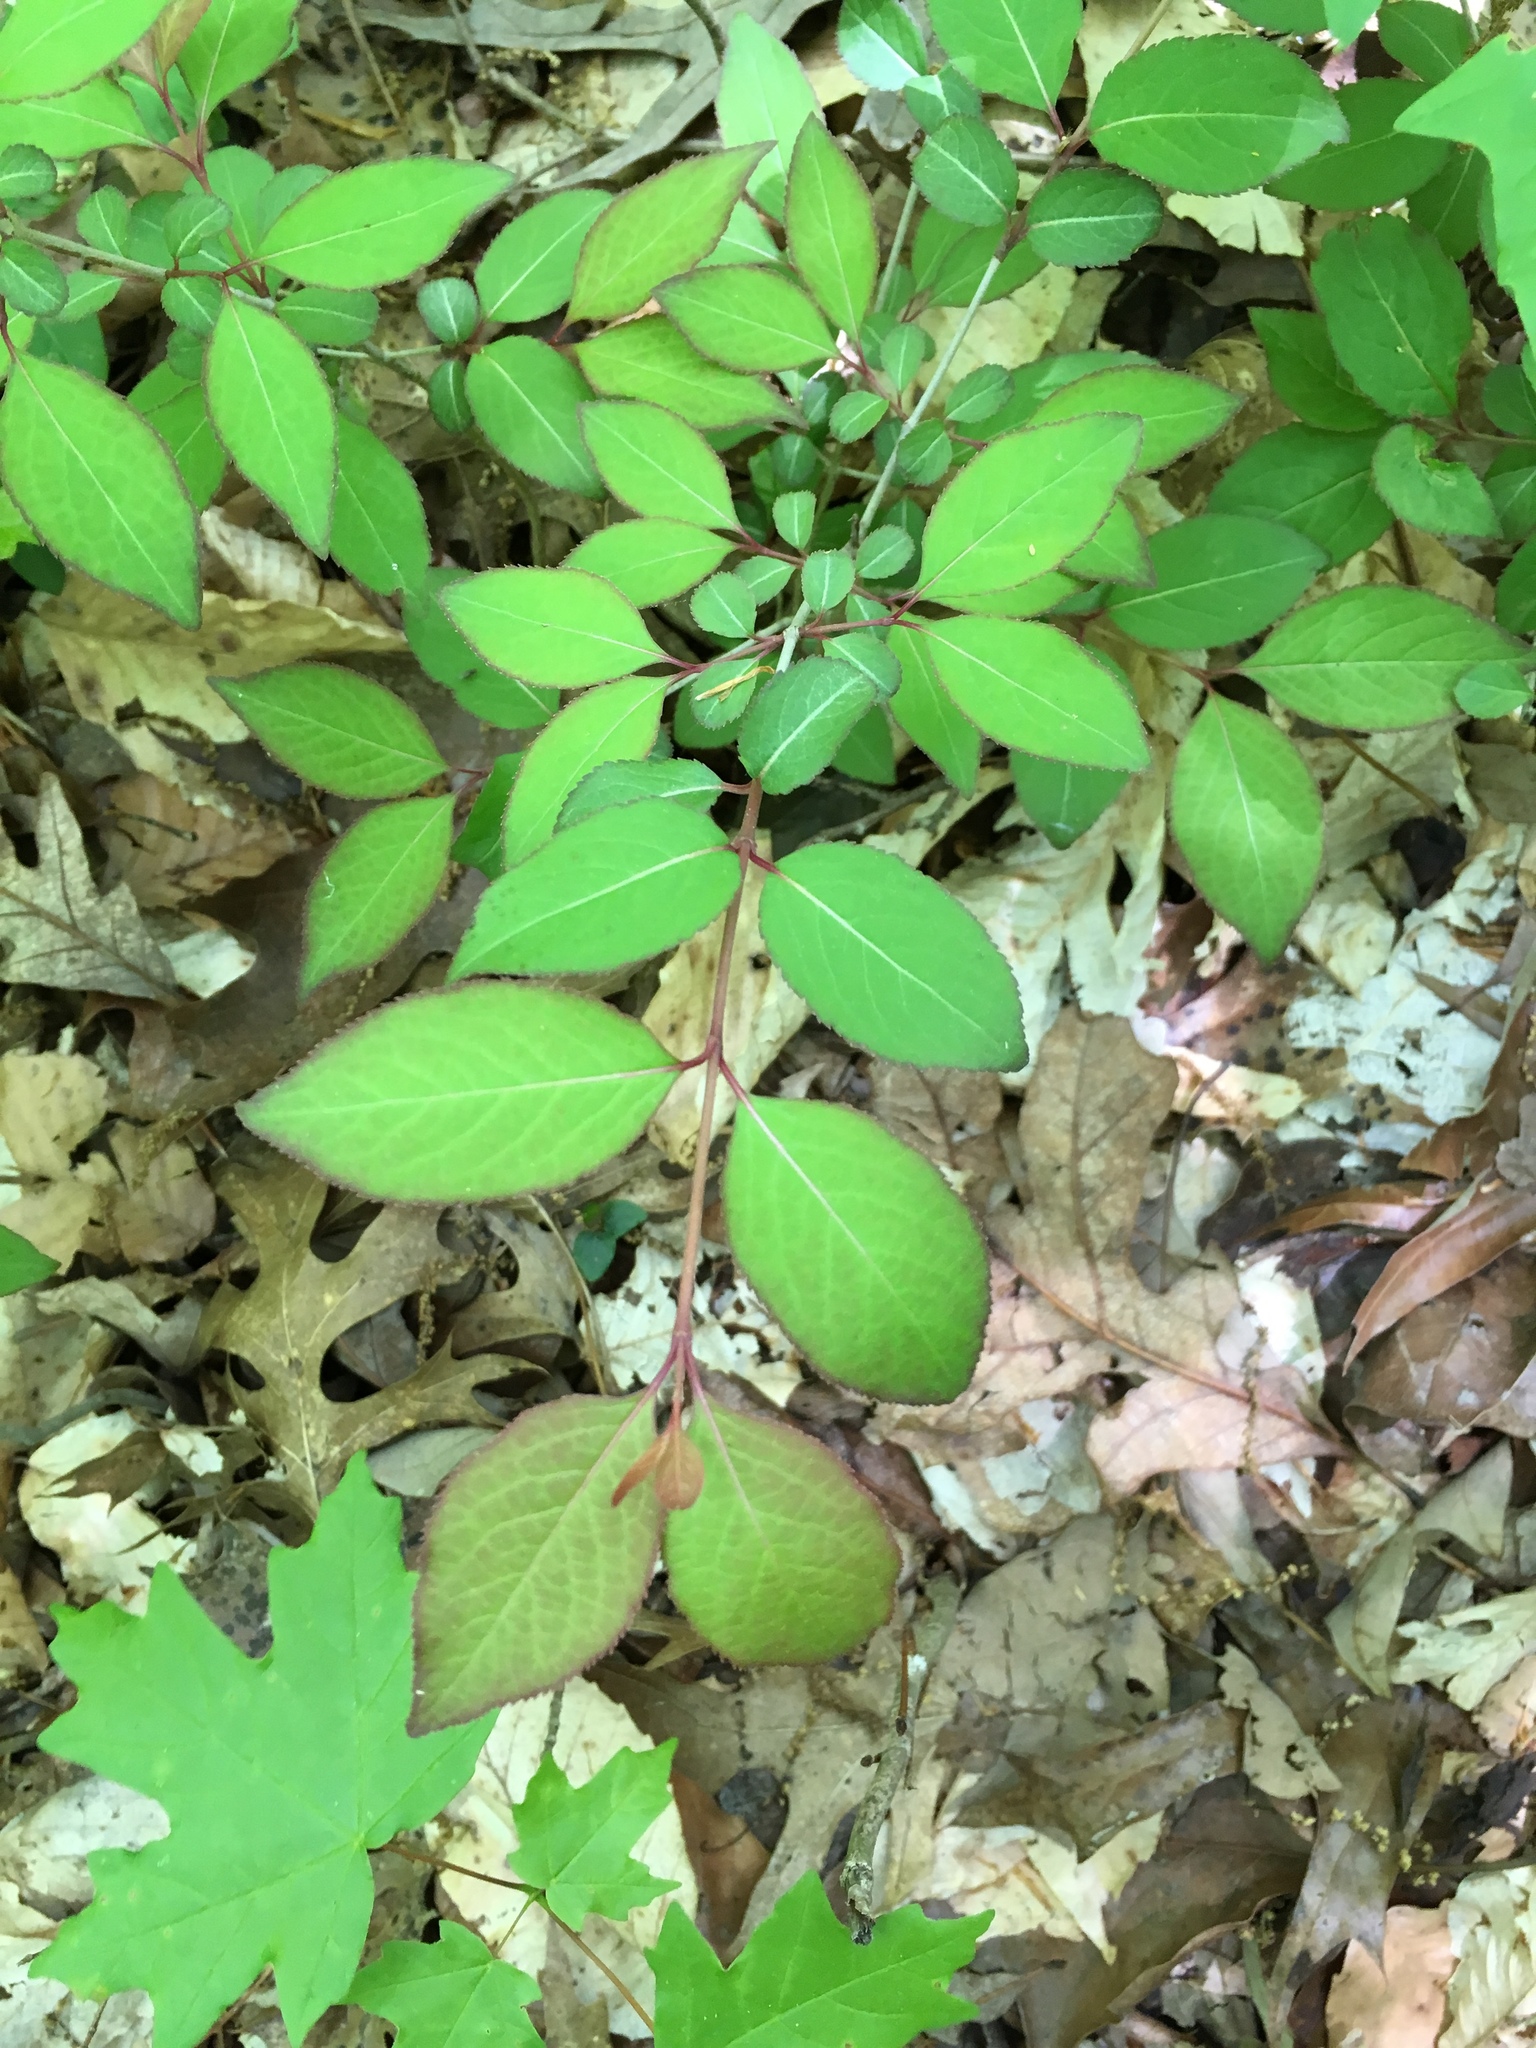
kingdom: Plantae
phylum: Tracheophyta
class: Magnoliopsida
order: Dipsacales
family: Viburnaceae
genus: Viburnum
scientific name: Viburnum prunifolium
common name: Black haw
